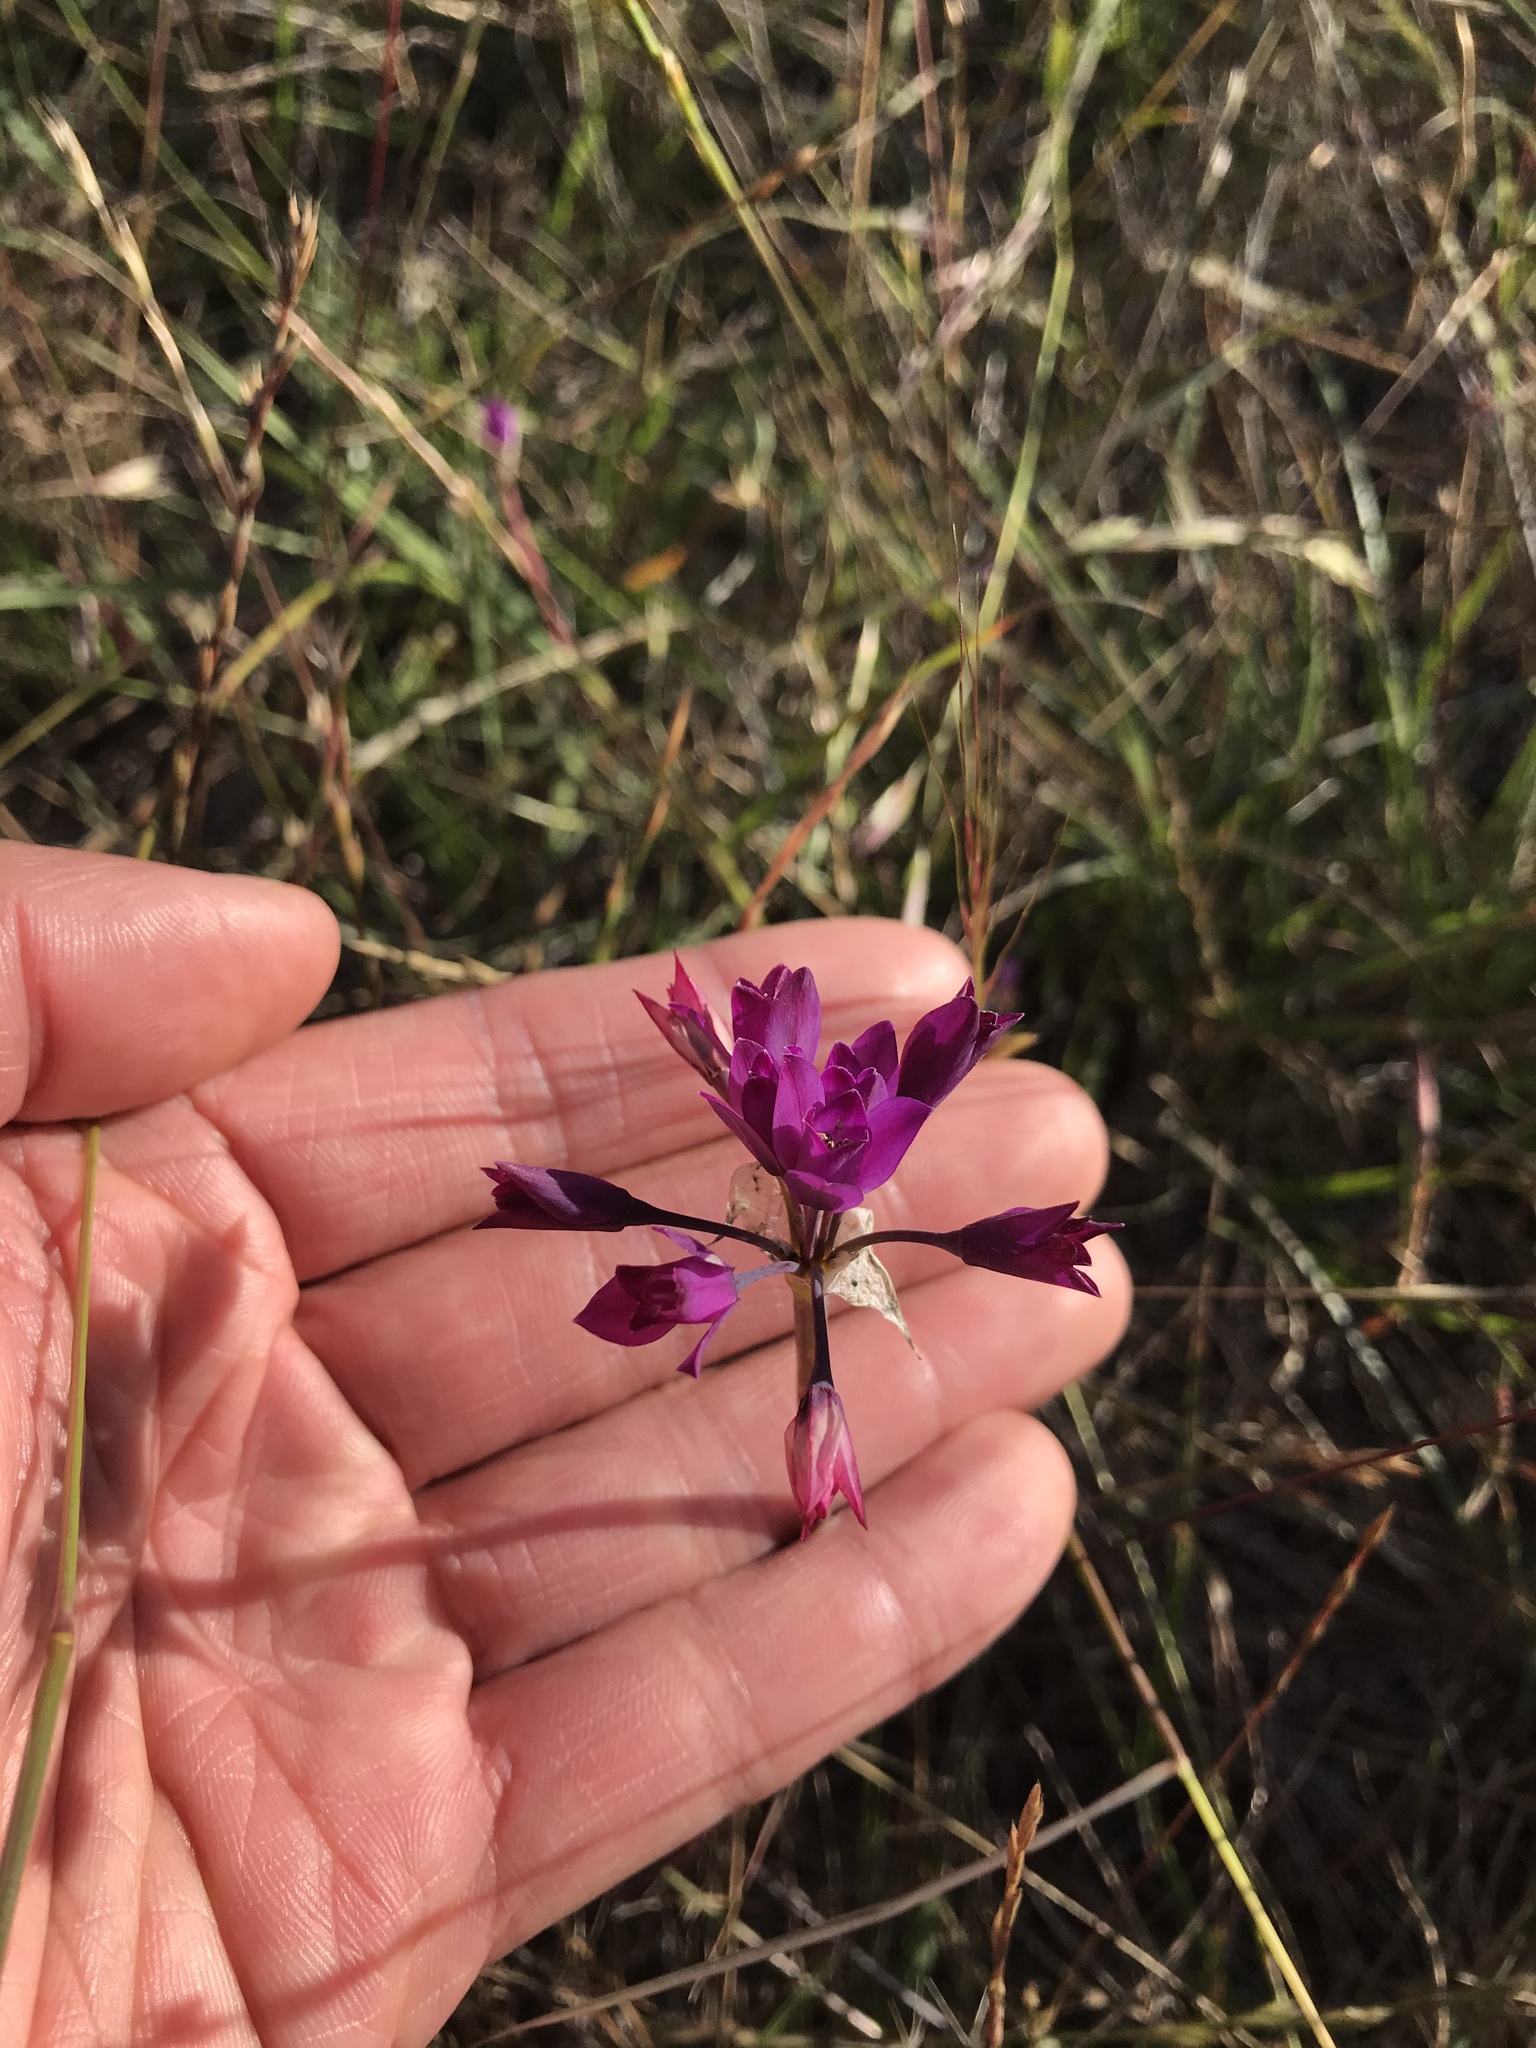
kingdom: Plantae
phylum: Tracheophyta
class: Liliopsida
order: Asparagales
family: Amaryllidaceae
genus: Allium
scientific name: Allium dichlamydeum
